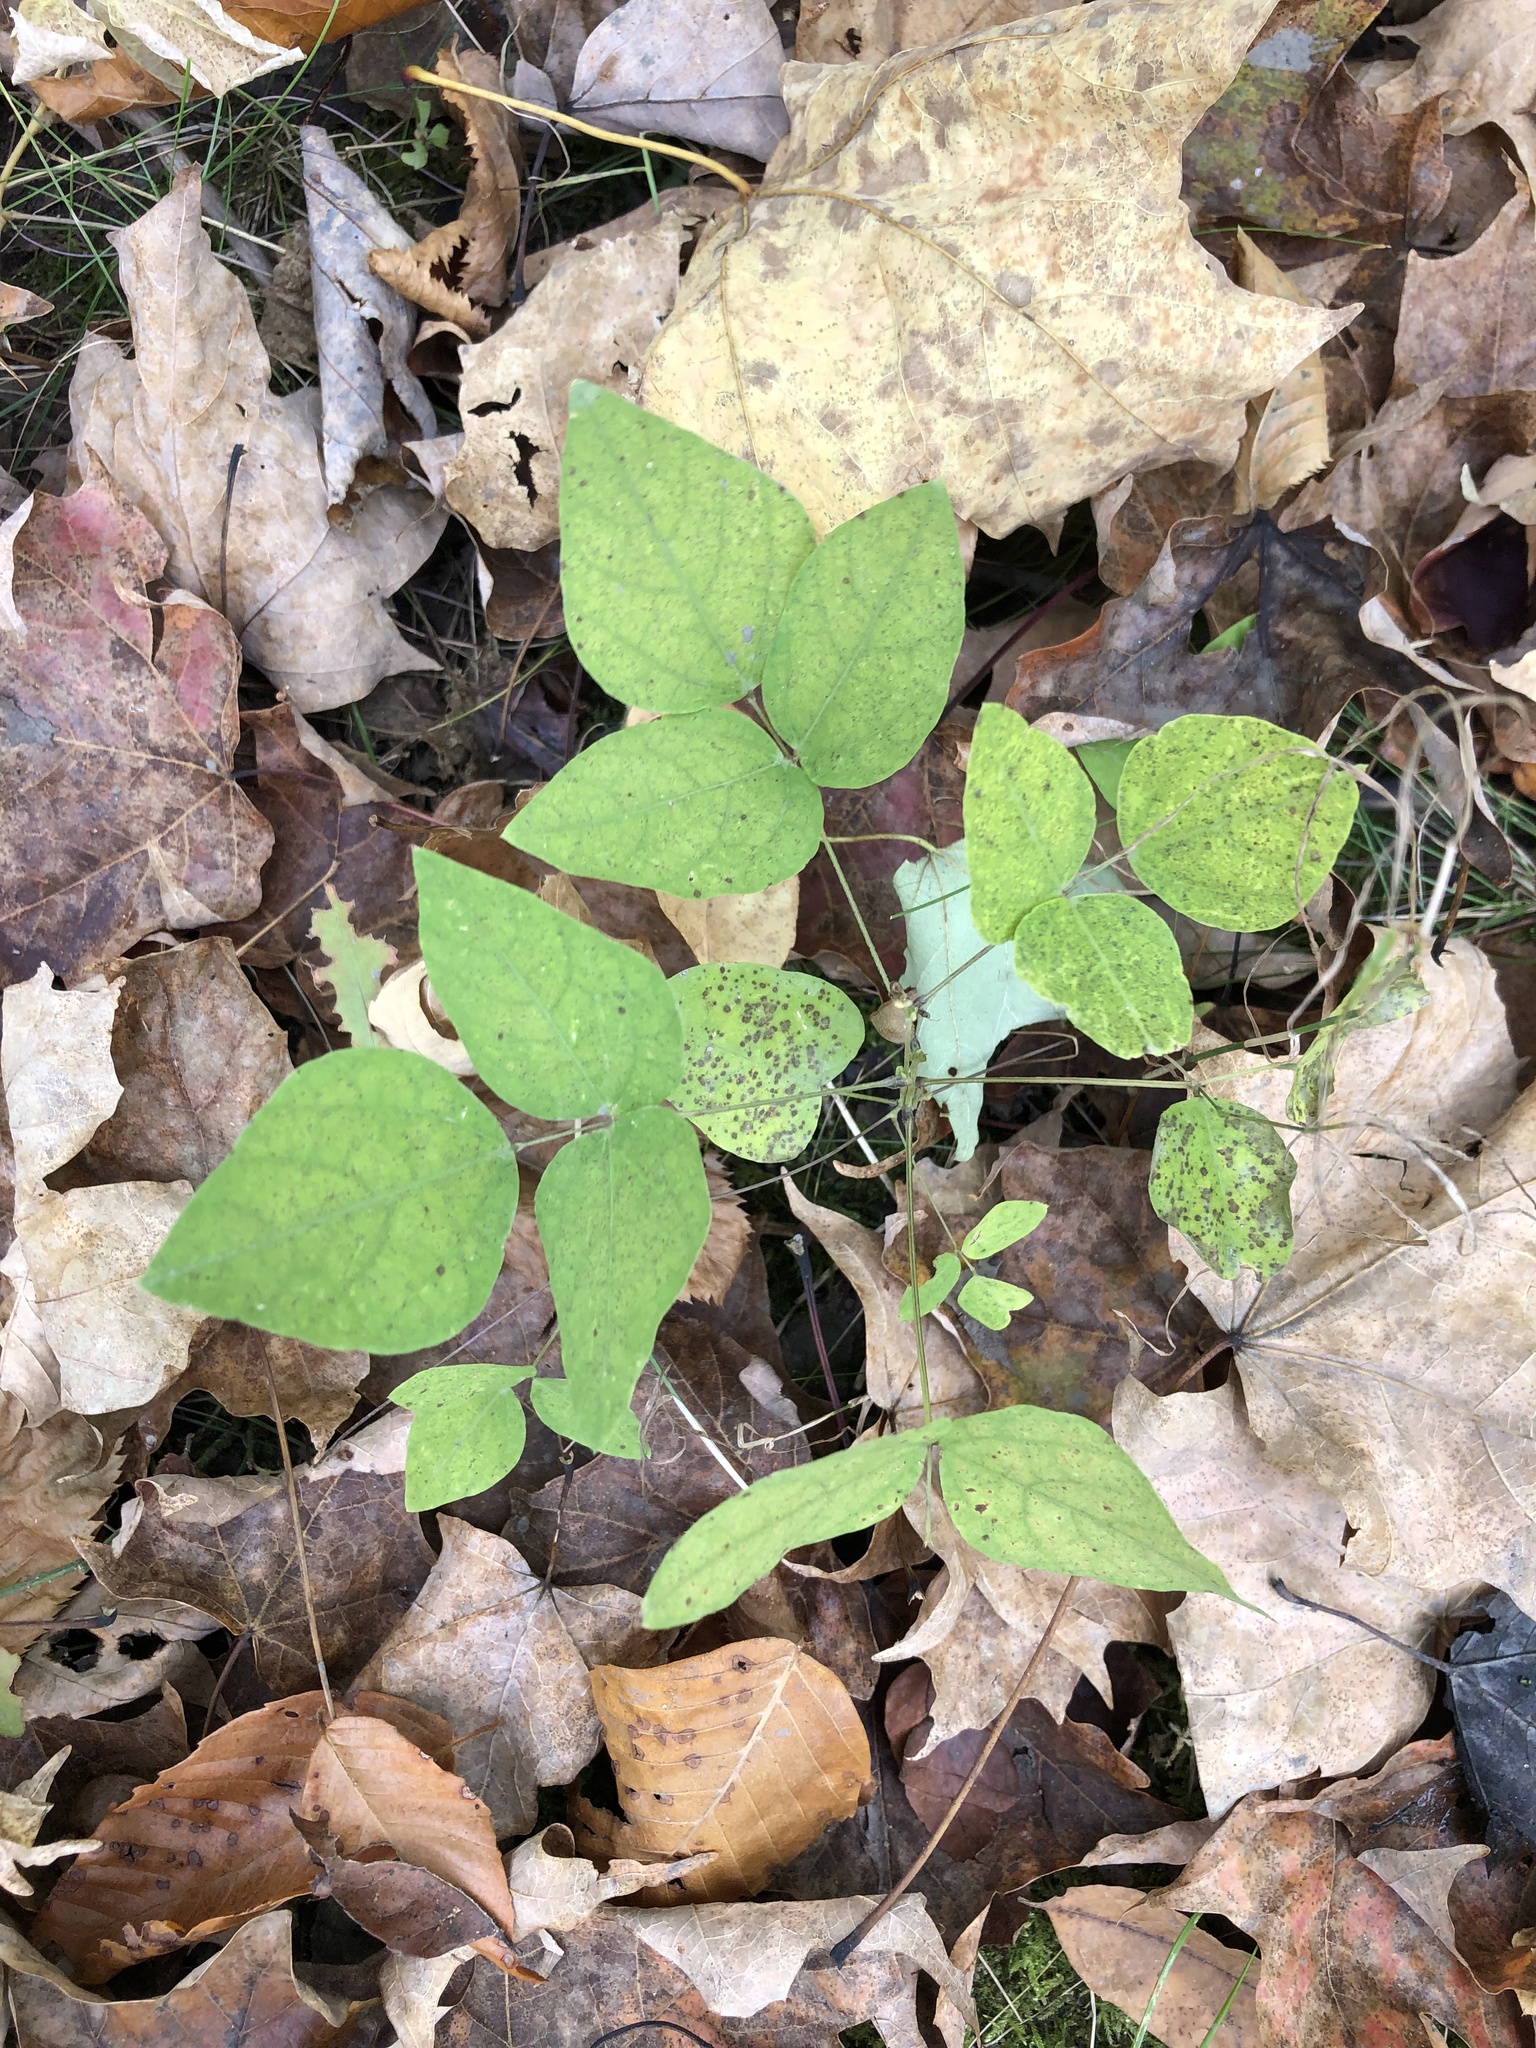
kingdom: Plantae
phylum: Tracheophyta
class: Magnoliopsida
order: Fabales
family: Fabaceae
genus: Amphicarpaea
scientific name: Amphicarpaea bracteata
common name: American hog peanut
